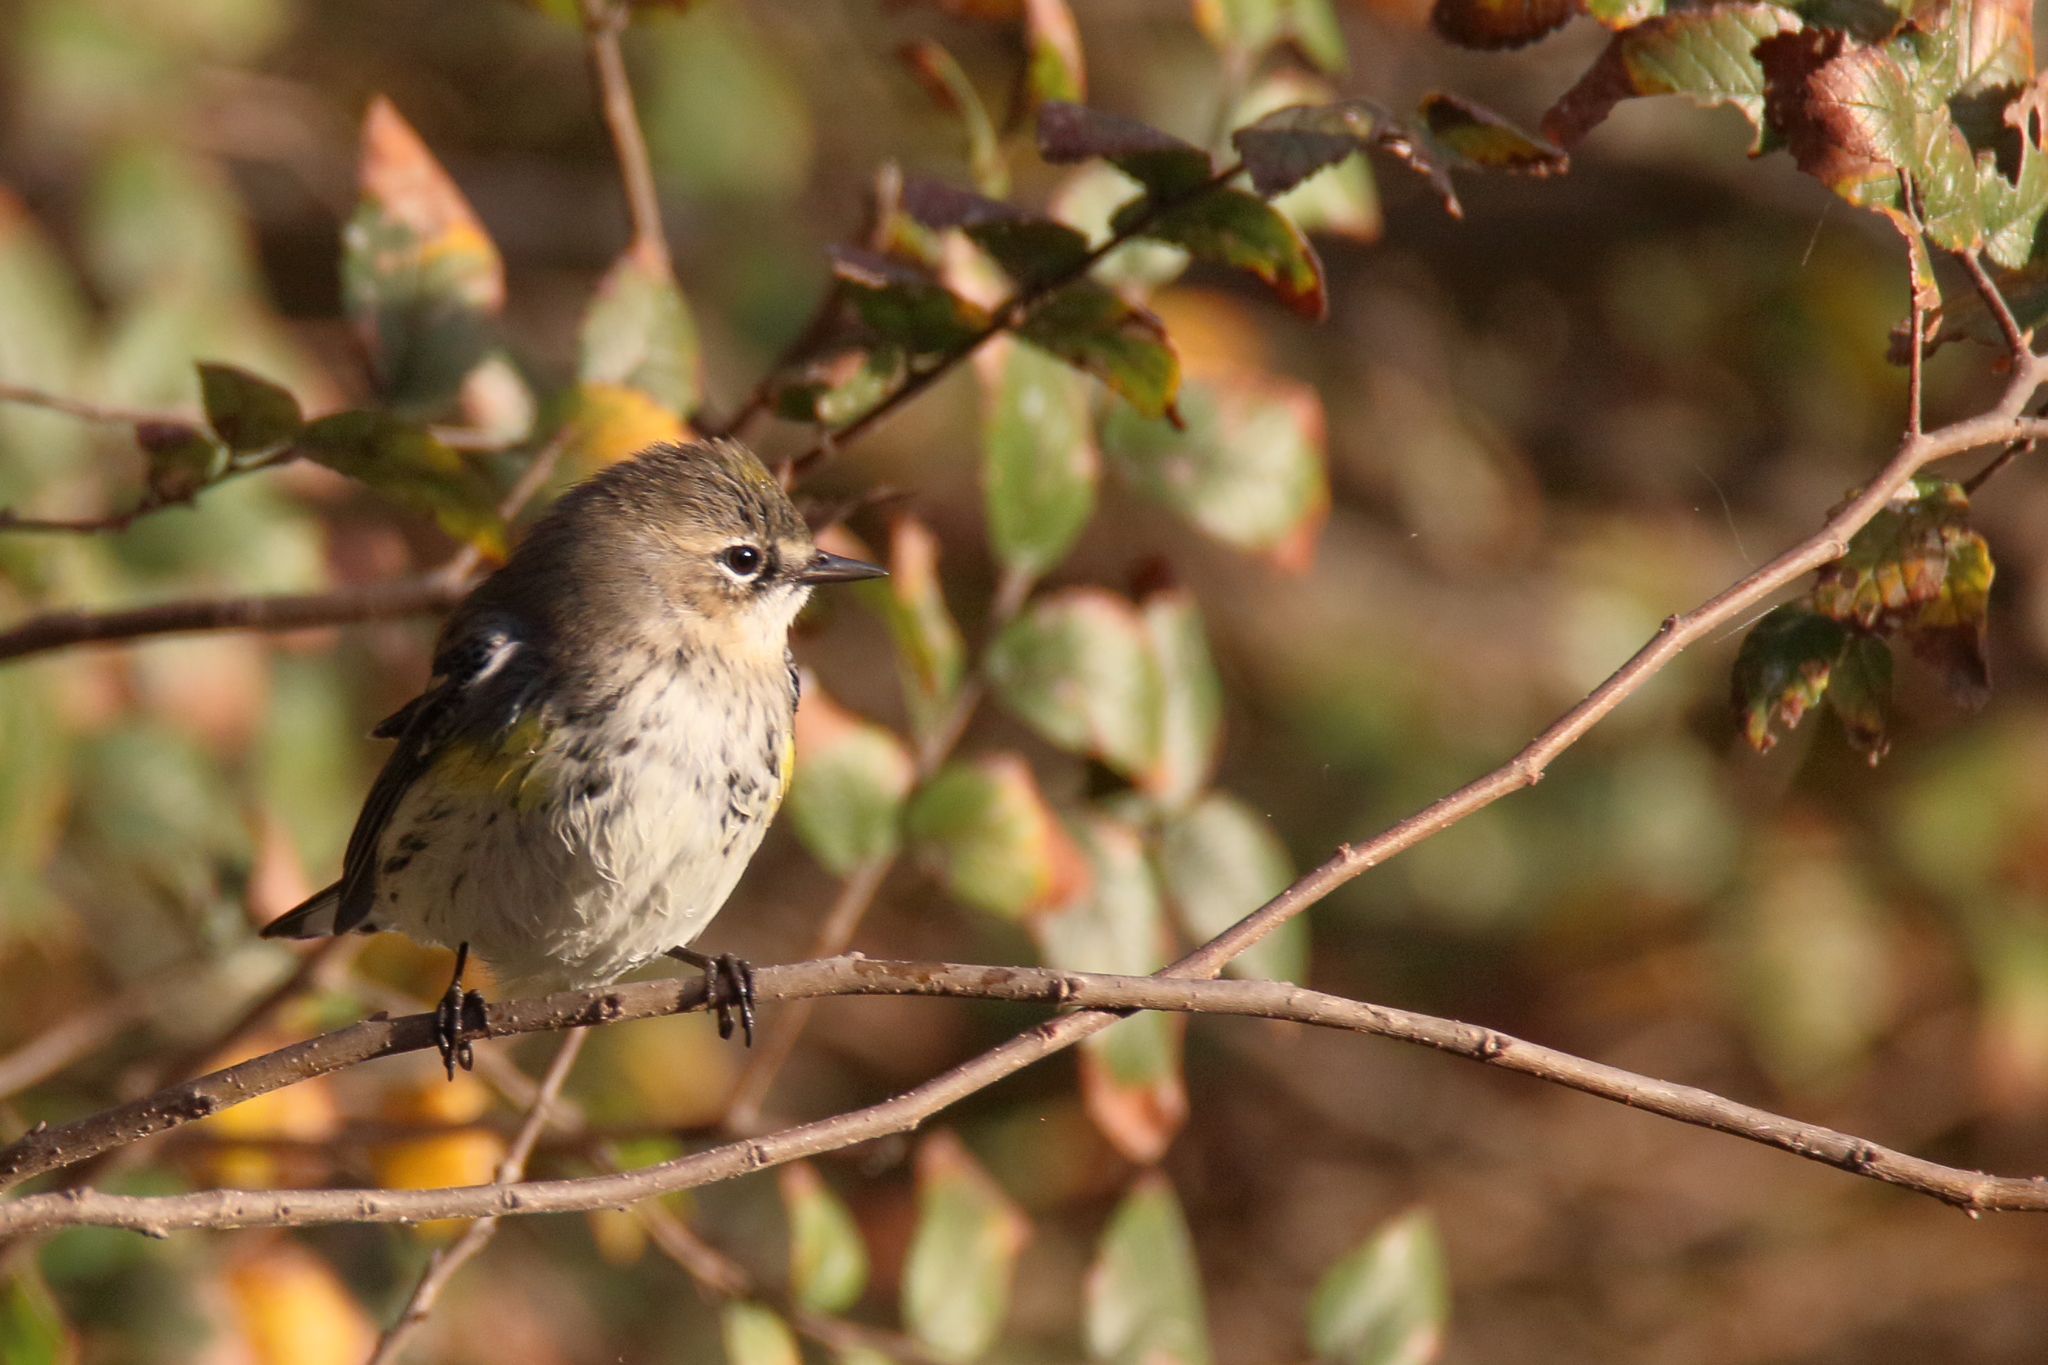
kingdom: Animalia
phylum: Chordata
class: Aves
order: Passeriformes
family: Parulidae
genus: Setophaga
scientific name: Setophaga coronata
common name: Myrtle warbler
